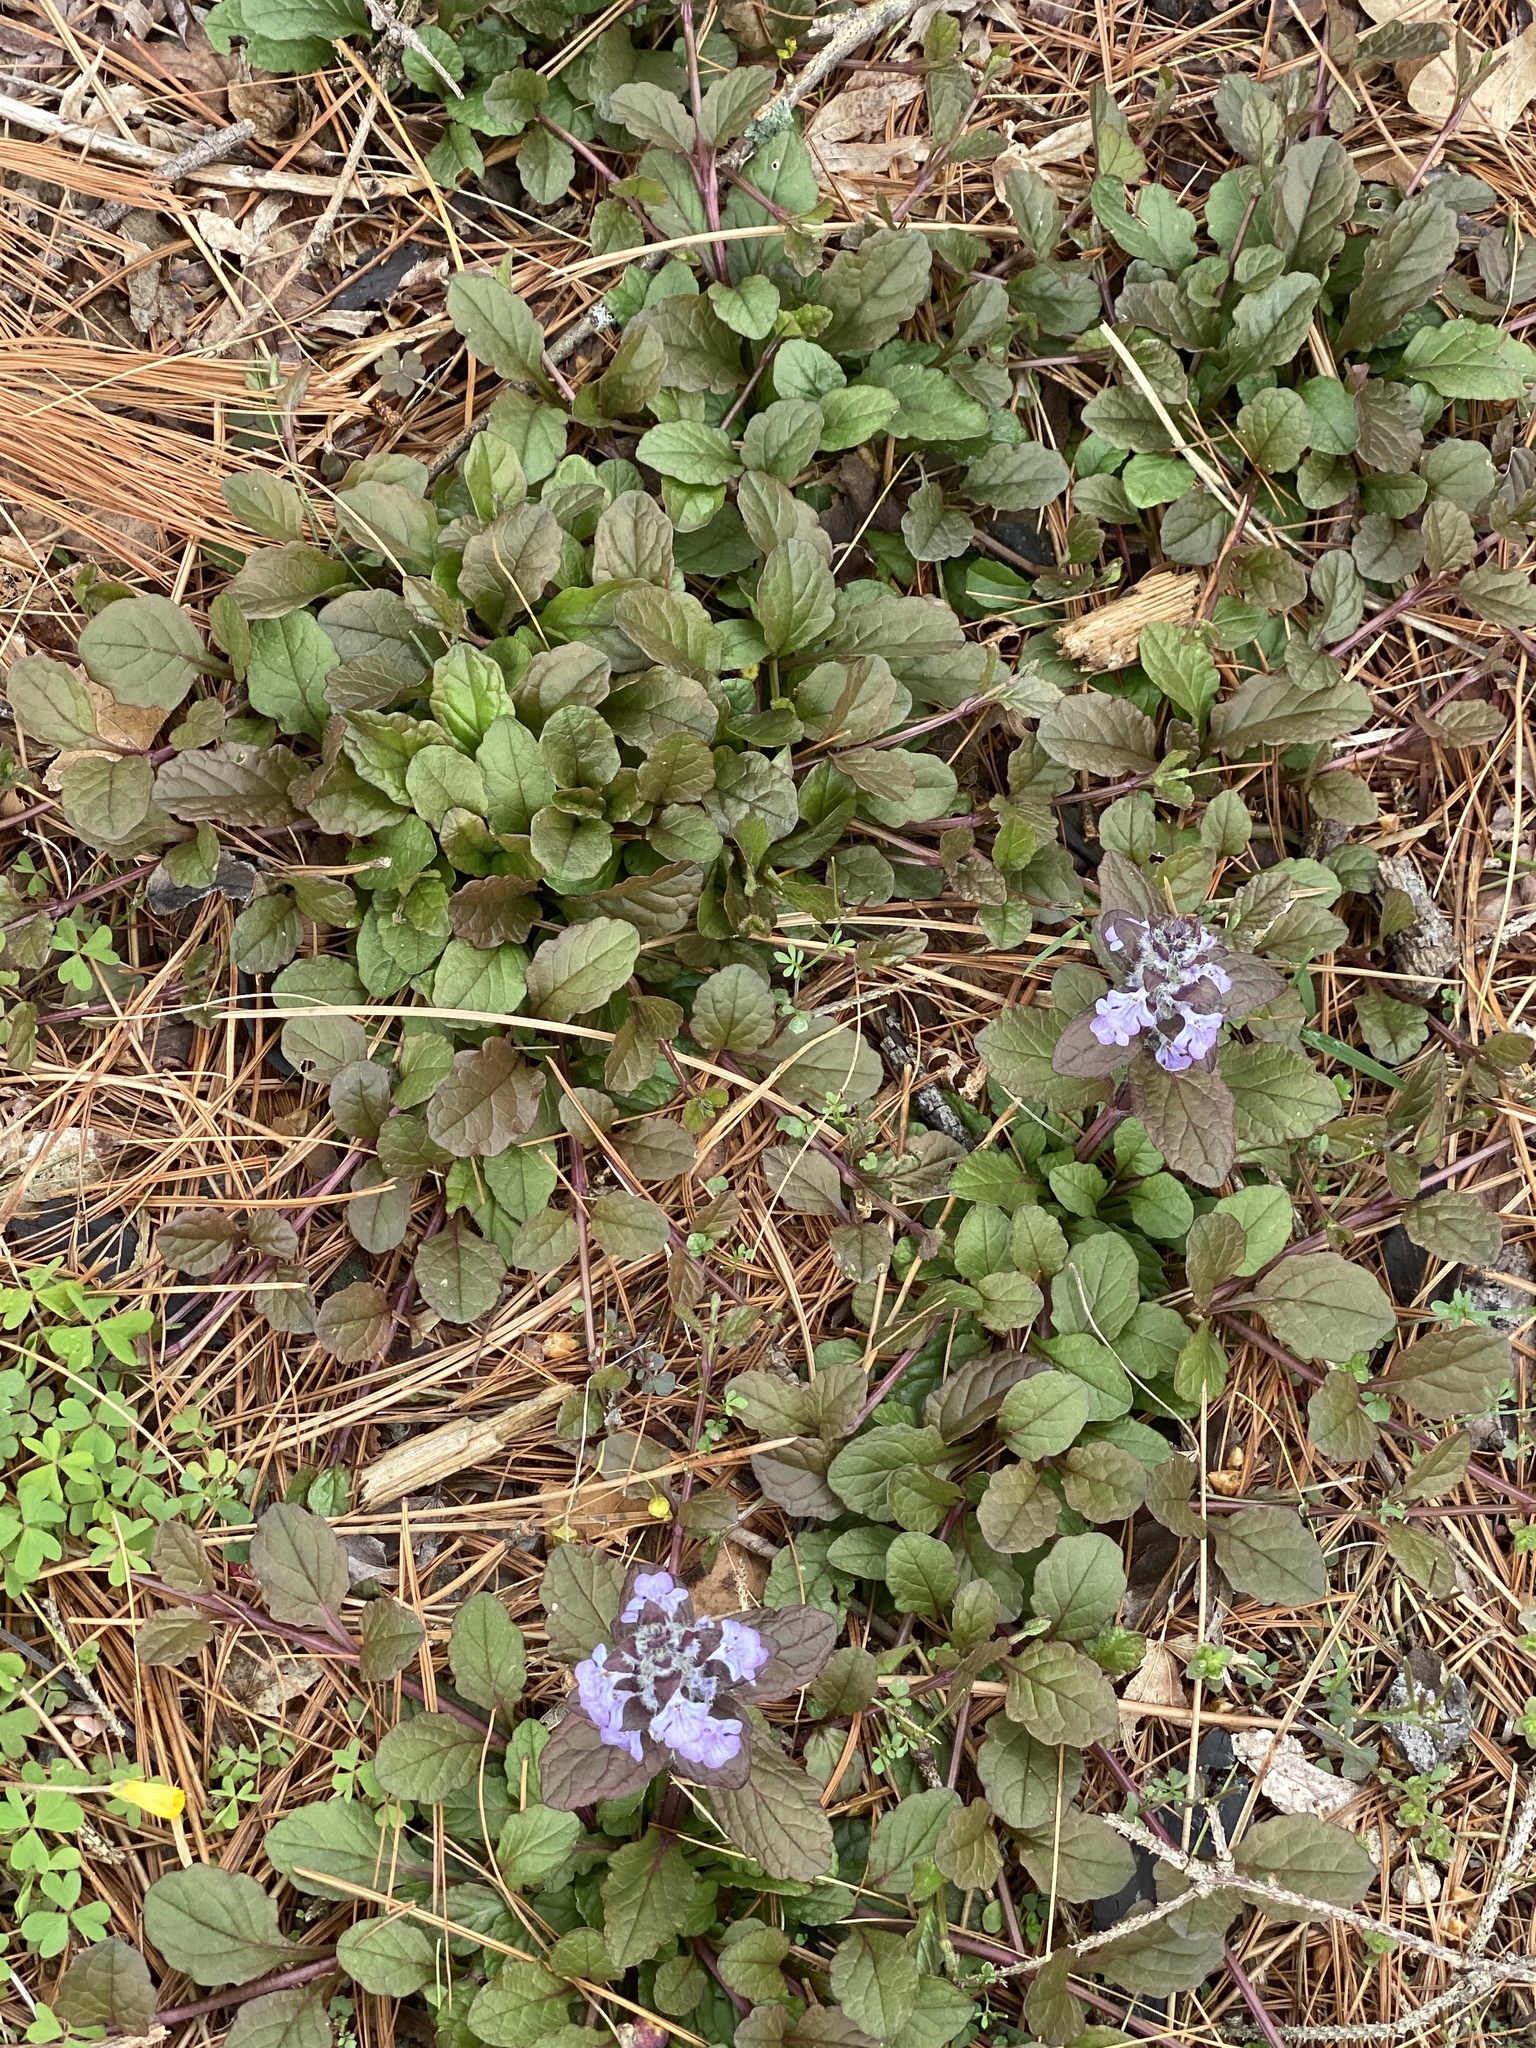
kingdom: Plantae
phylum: Tracheophyta
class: Magnoliopsida
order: Lamiales
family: Lamiaceae
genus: Ajuga
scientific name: Ajuga reptans
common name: Bugle
